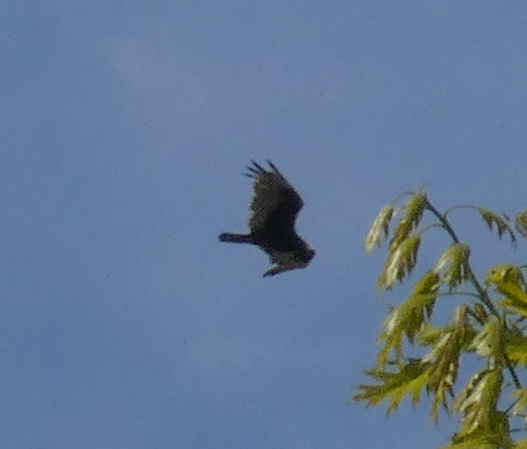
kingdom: Animalia
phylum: Chordata
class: Aves
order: Accipitriformes
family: Cathartidae
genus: Cathartes
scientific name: Cathartes aura
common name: Turkey vulture
